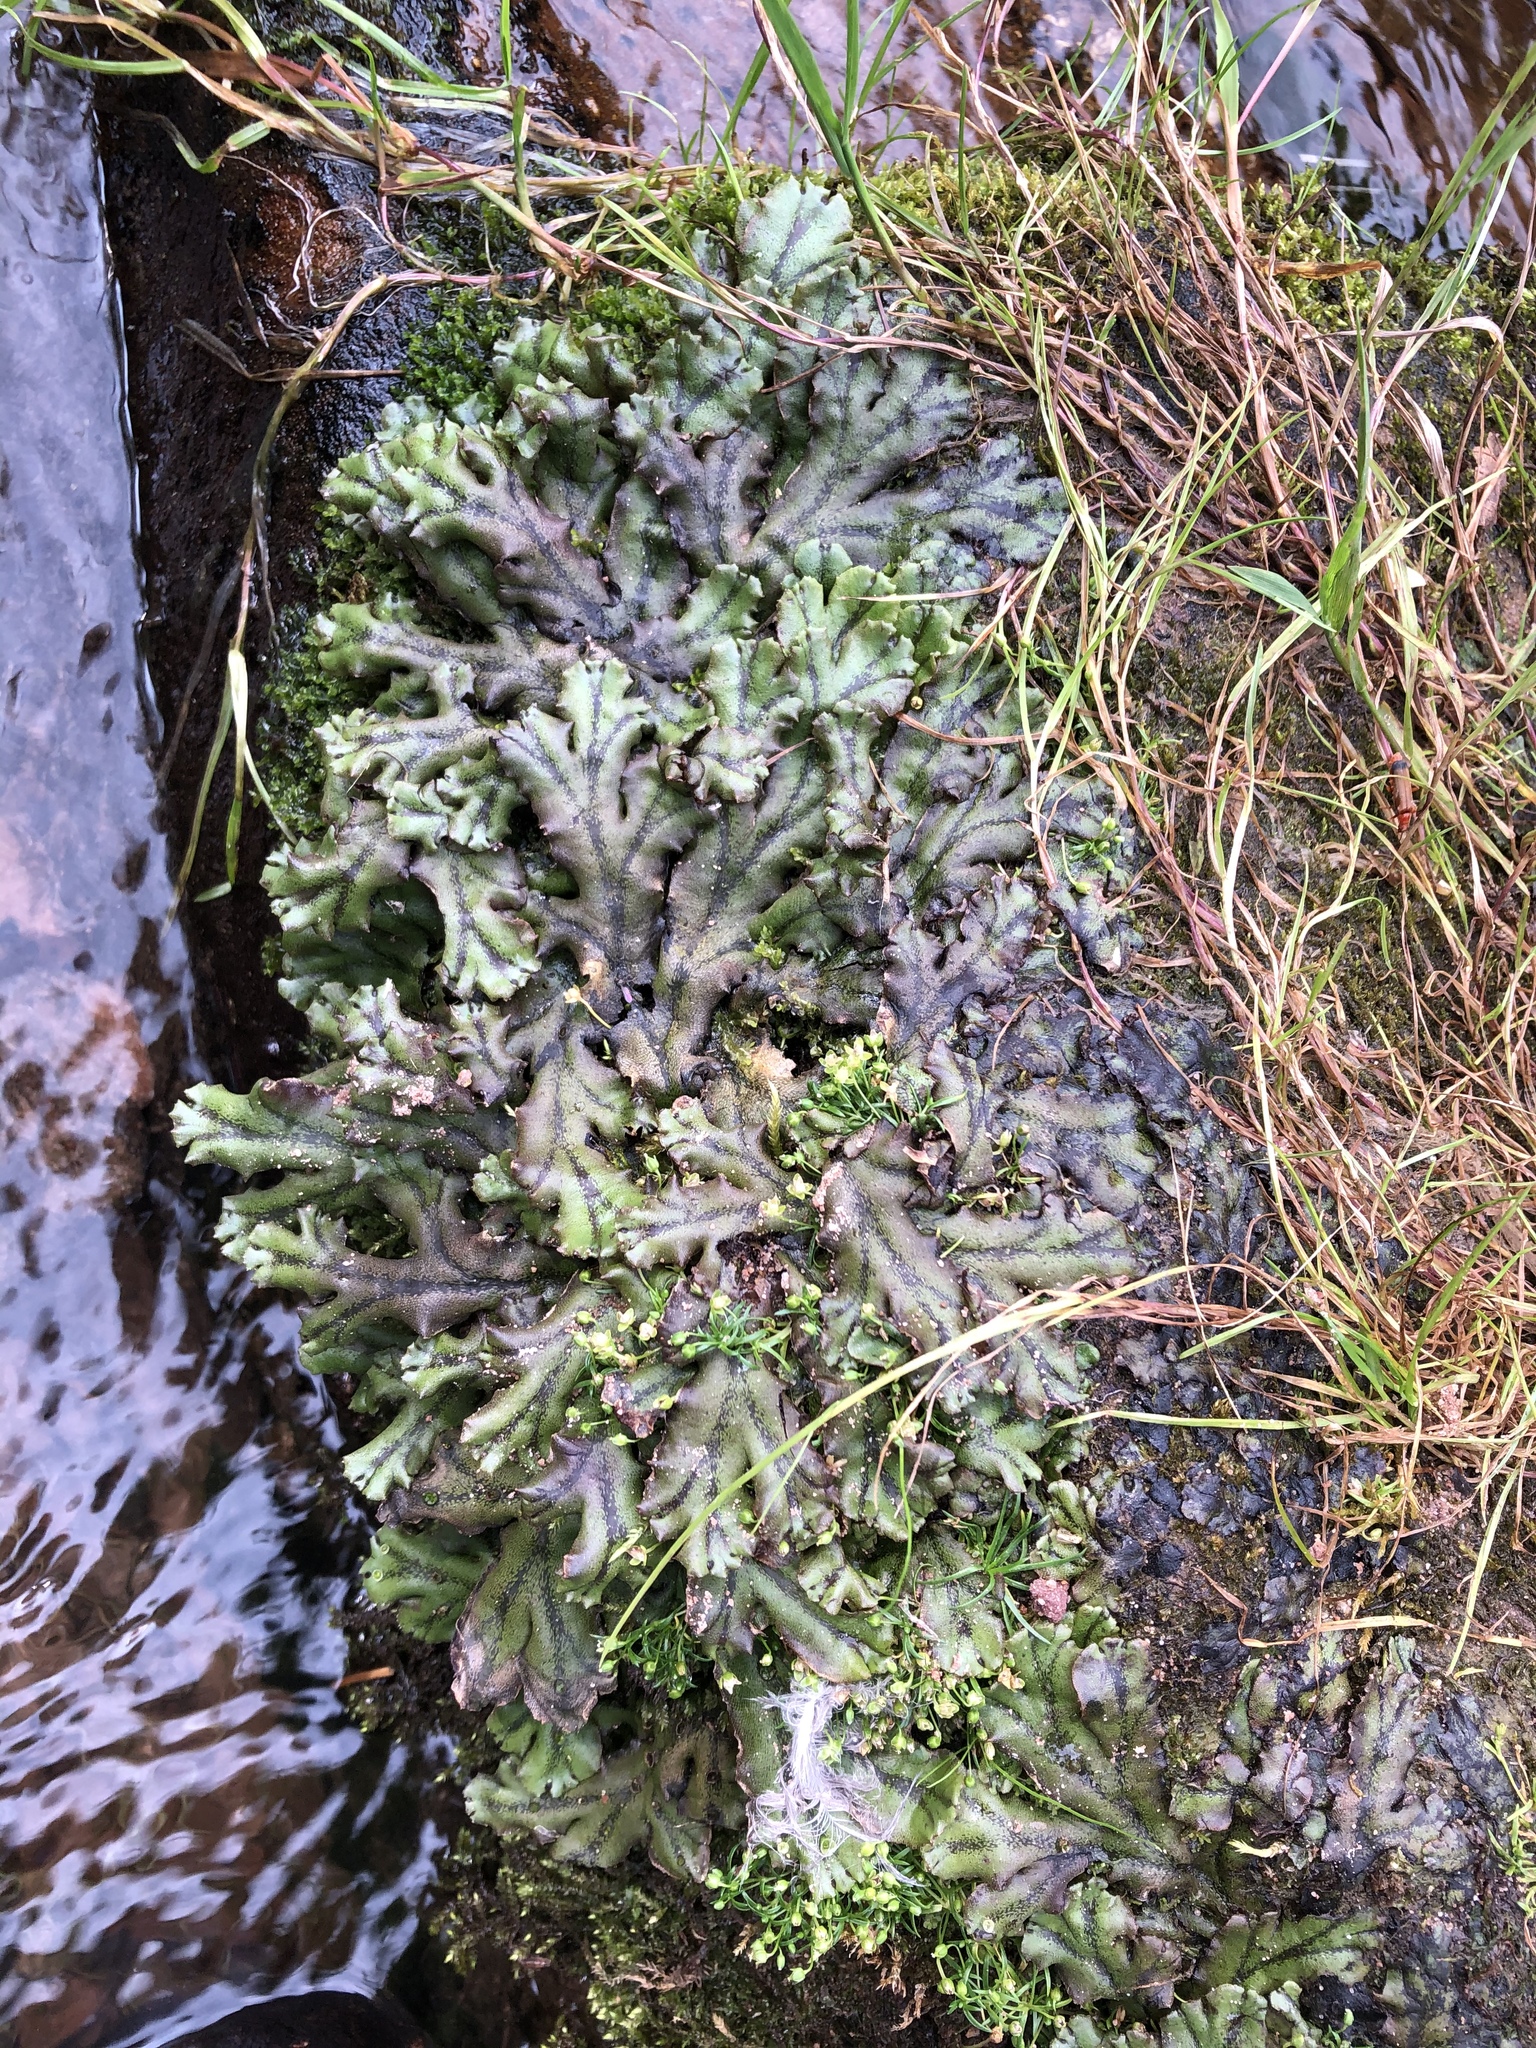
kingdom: Plantae
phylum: Marchantiophyta
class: Marchantiopsida
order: Marchantiales
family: Marchantiaceae
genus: Marchantia
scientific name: Marchantia polymorpha
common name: Common liverwort
